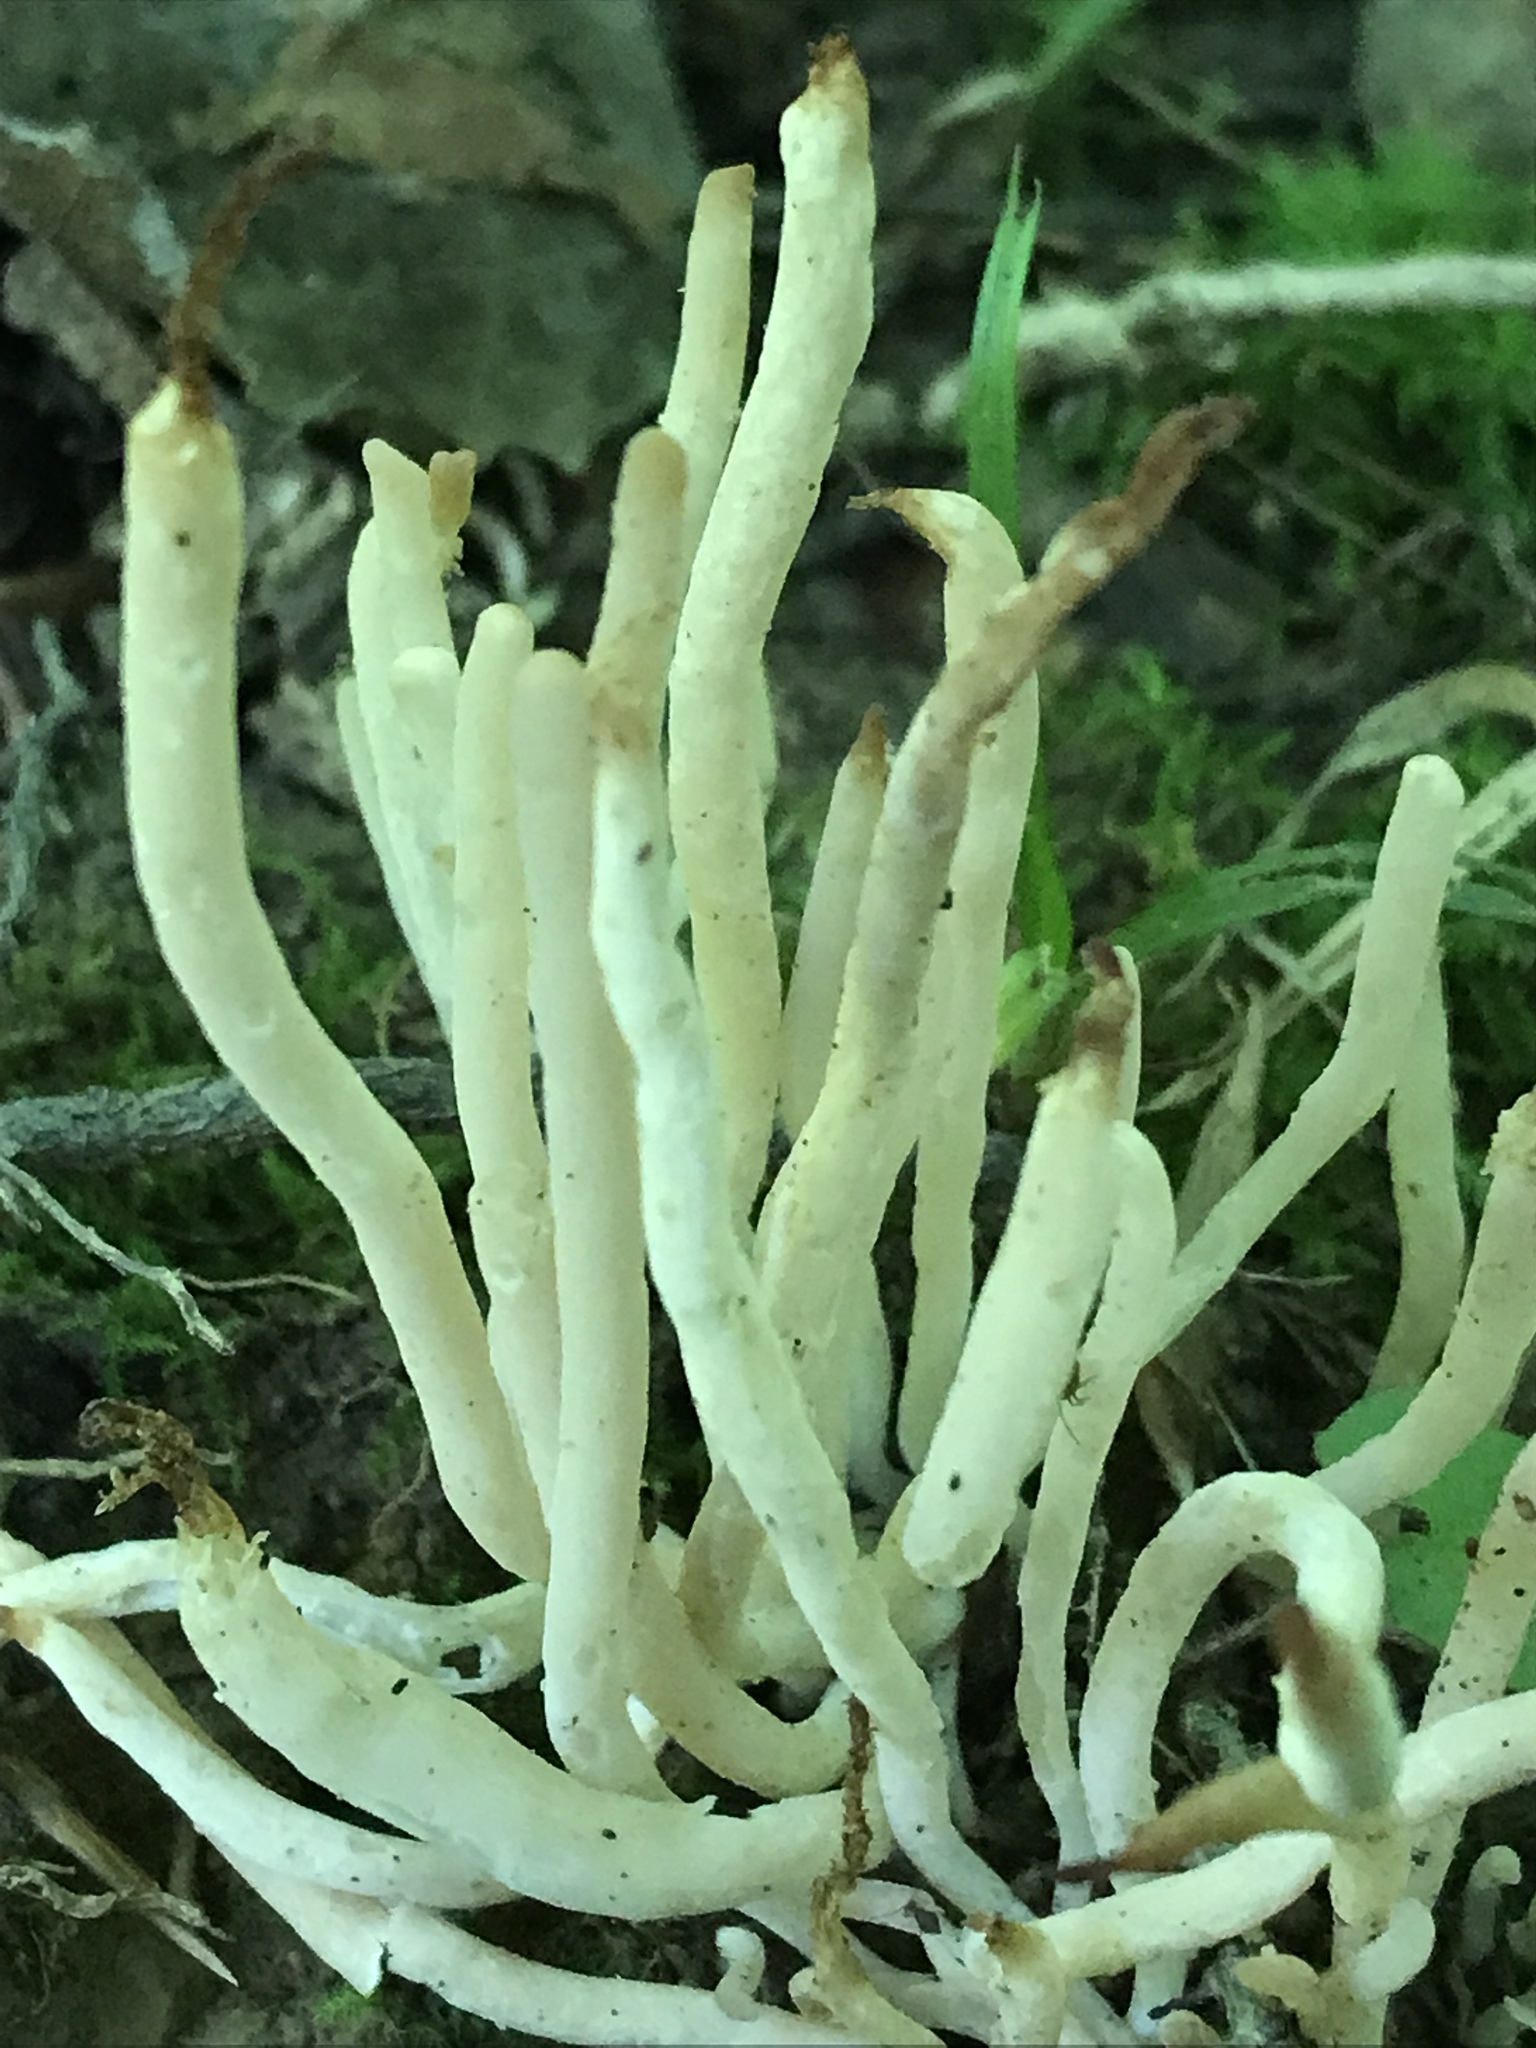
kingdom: Fungi
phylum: Basidiomycota
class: Agaricomycetes
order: Agaricales
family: Clavariaceae
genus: Clavaria
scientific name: Clavaria fumosa
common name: Smoky spindles
